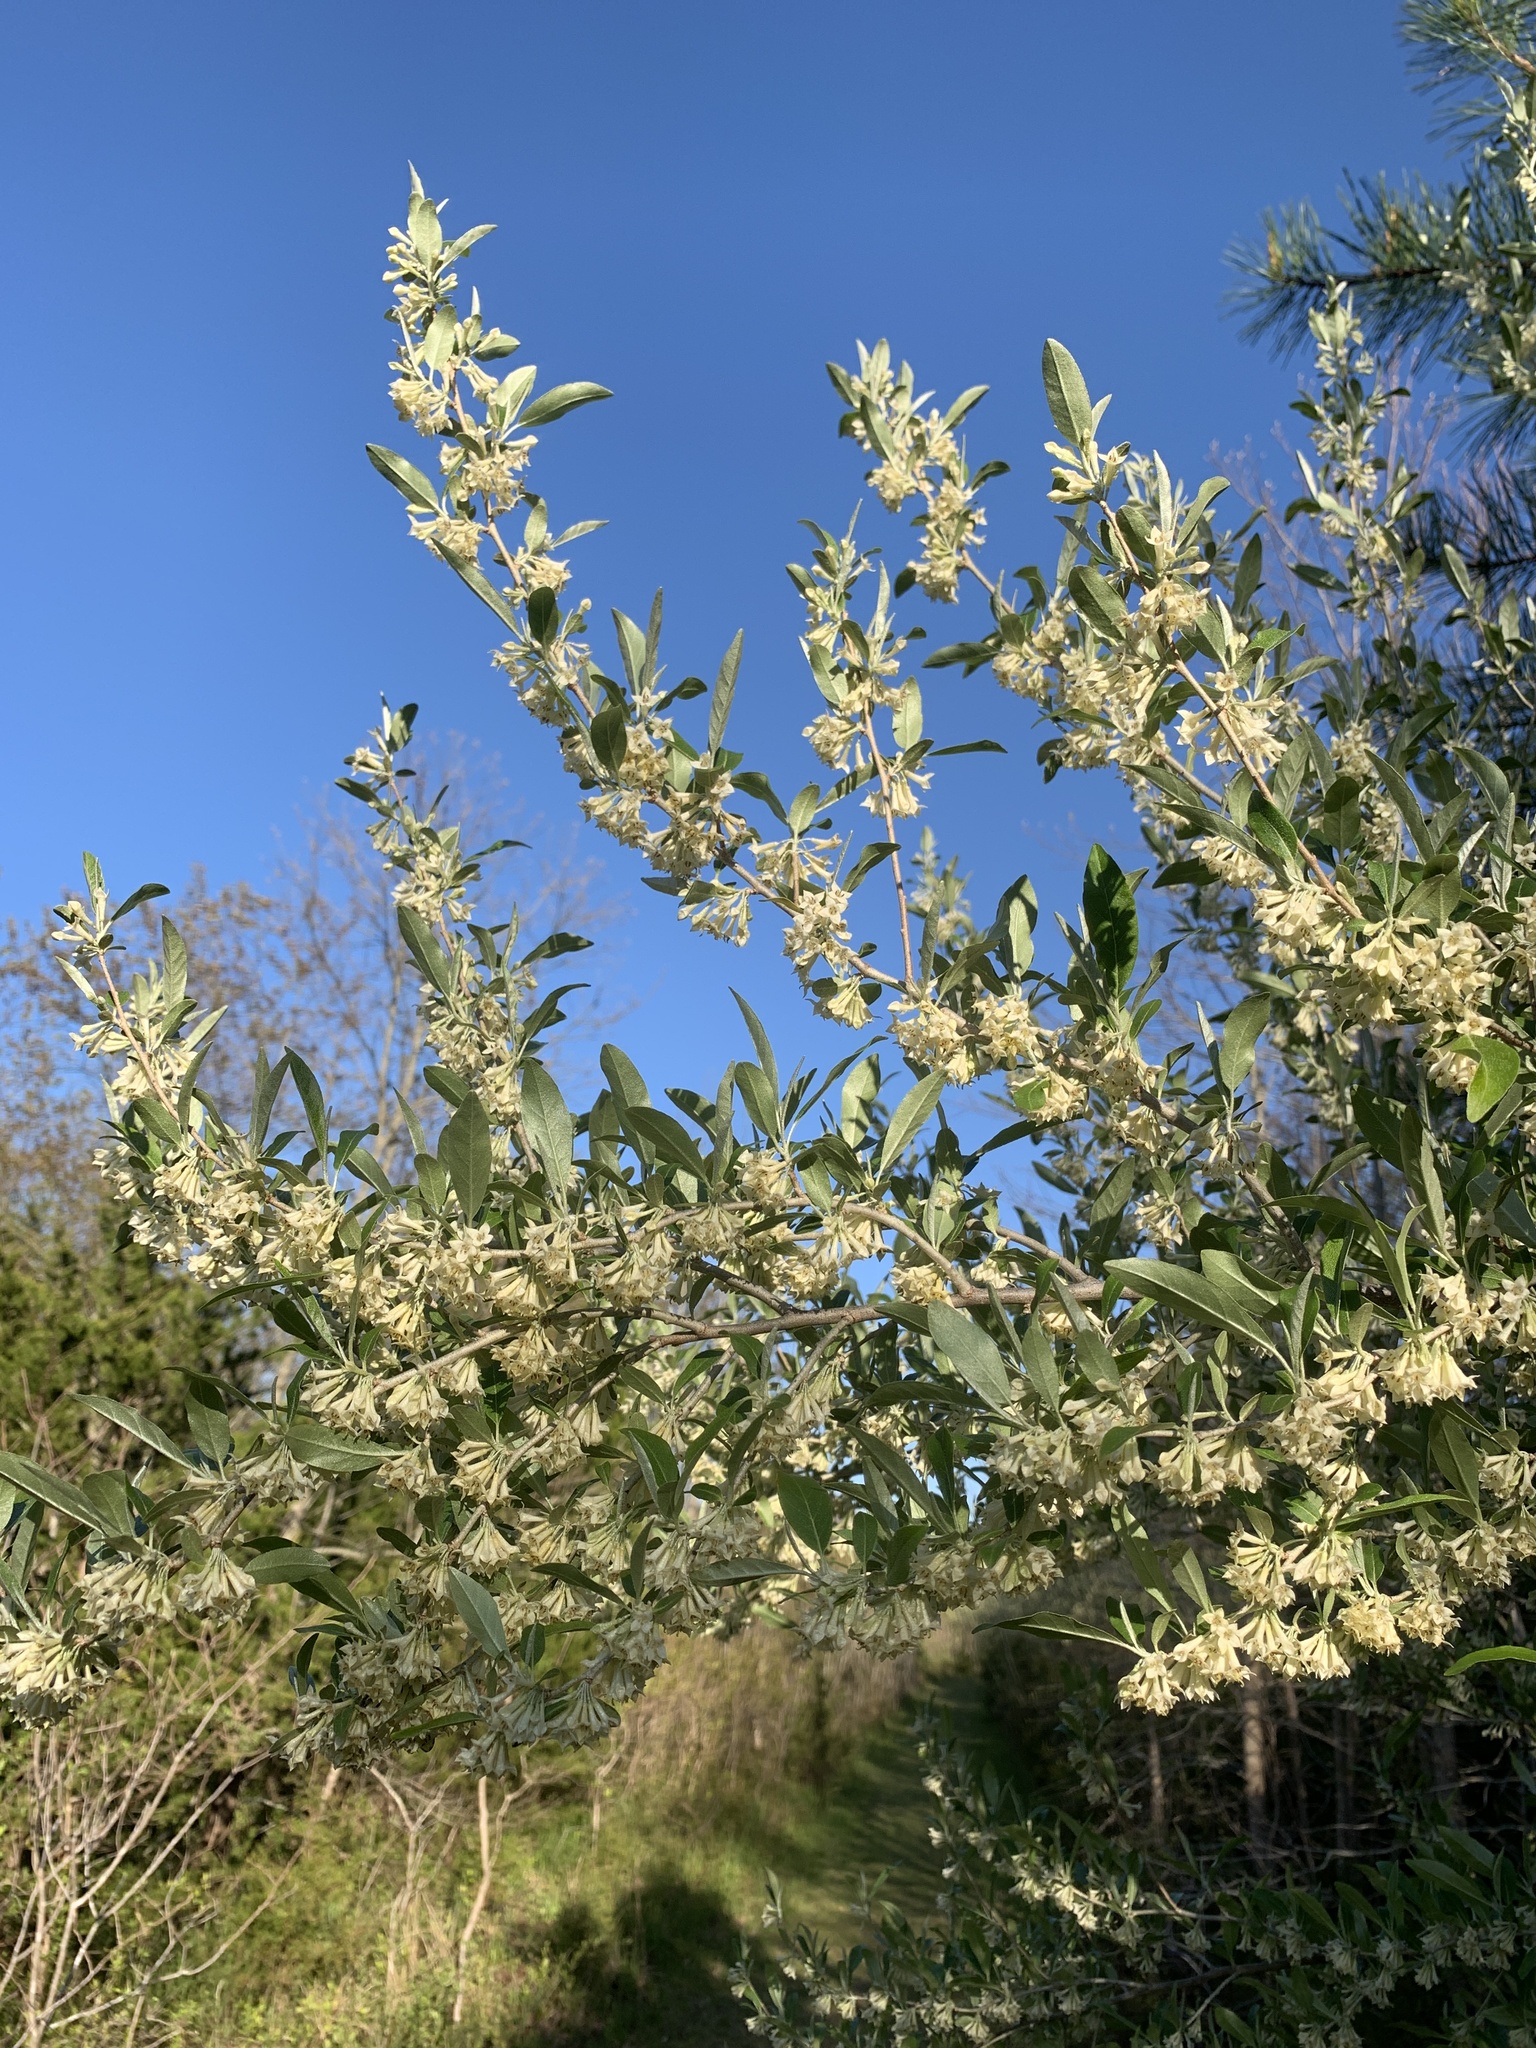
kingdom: Plantae
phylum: Tracheophyta
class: Magnoliopsida
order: Rosales
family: Elaeagnaceae
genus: Elaeagnus
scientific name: Elaeagnus umbellata
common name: Autumn olive
